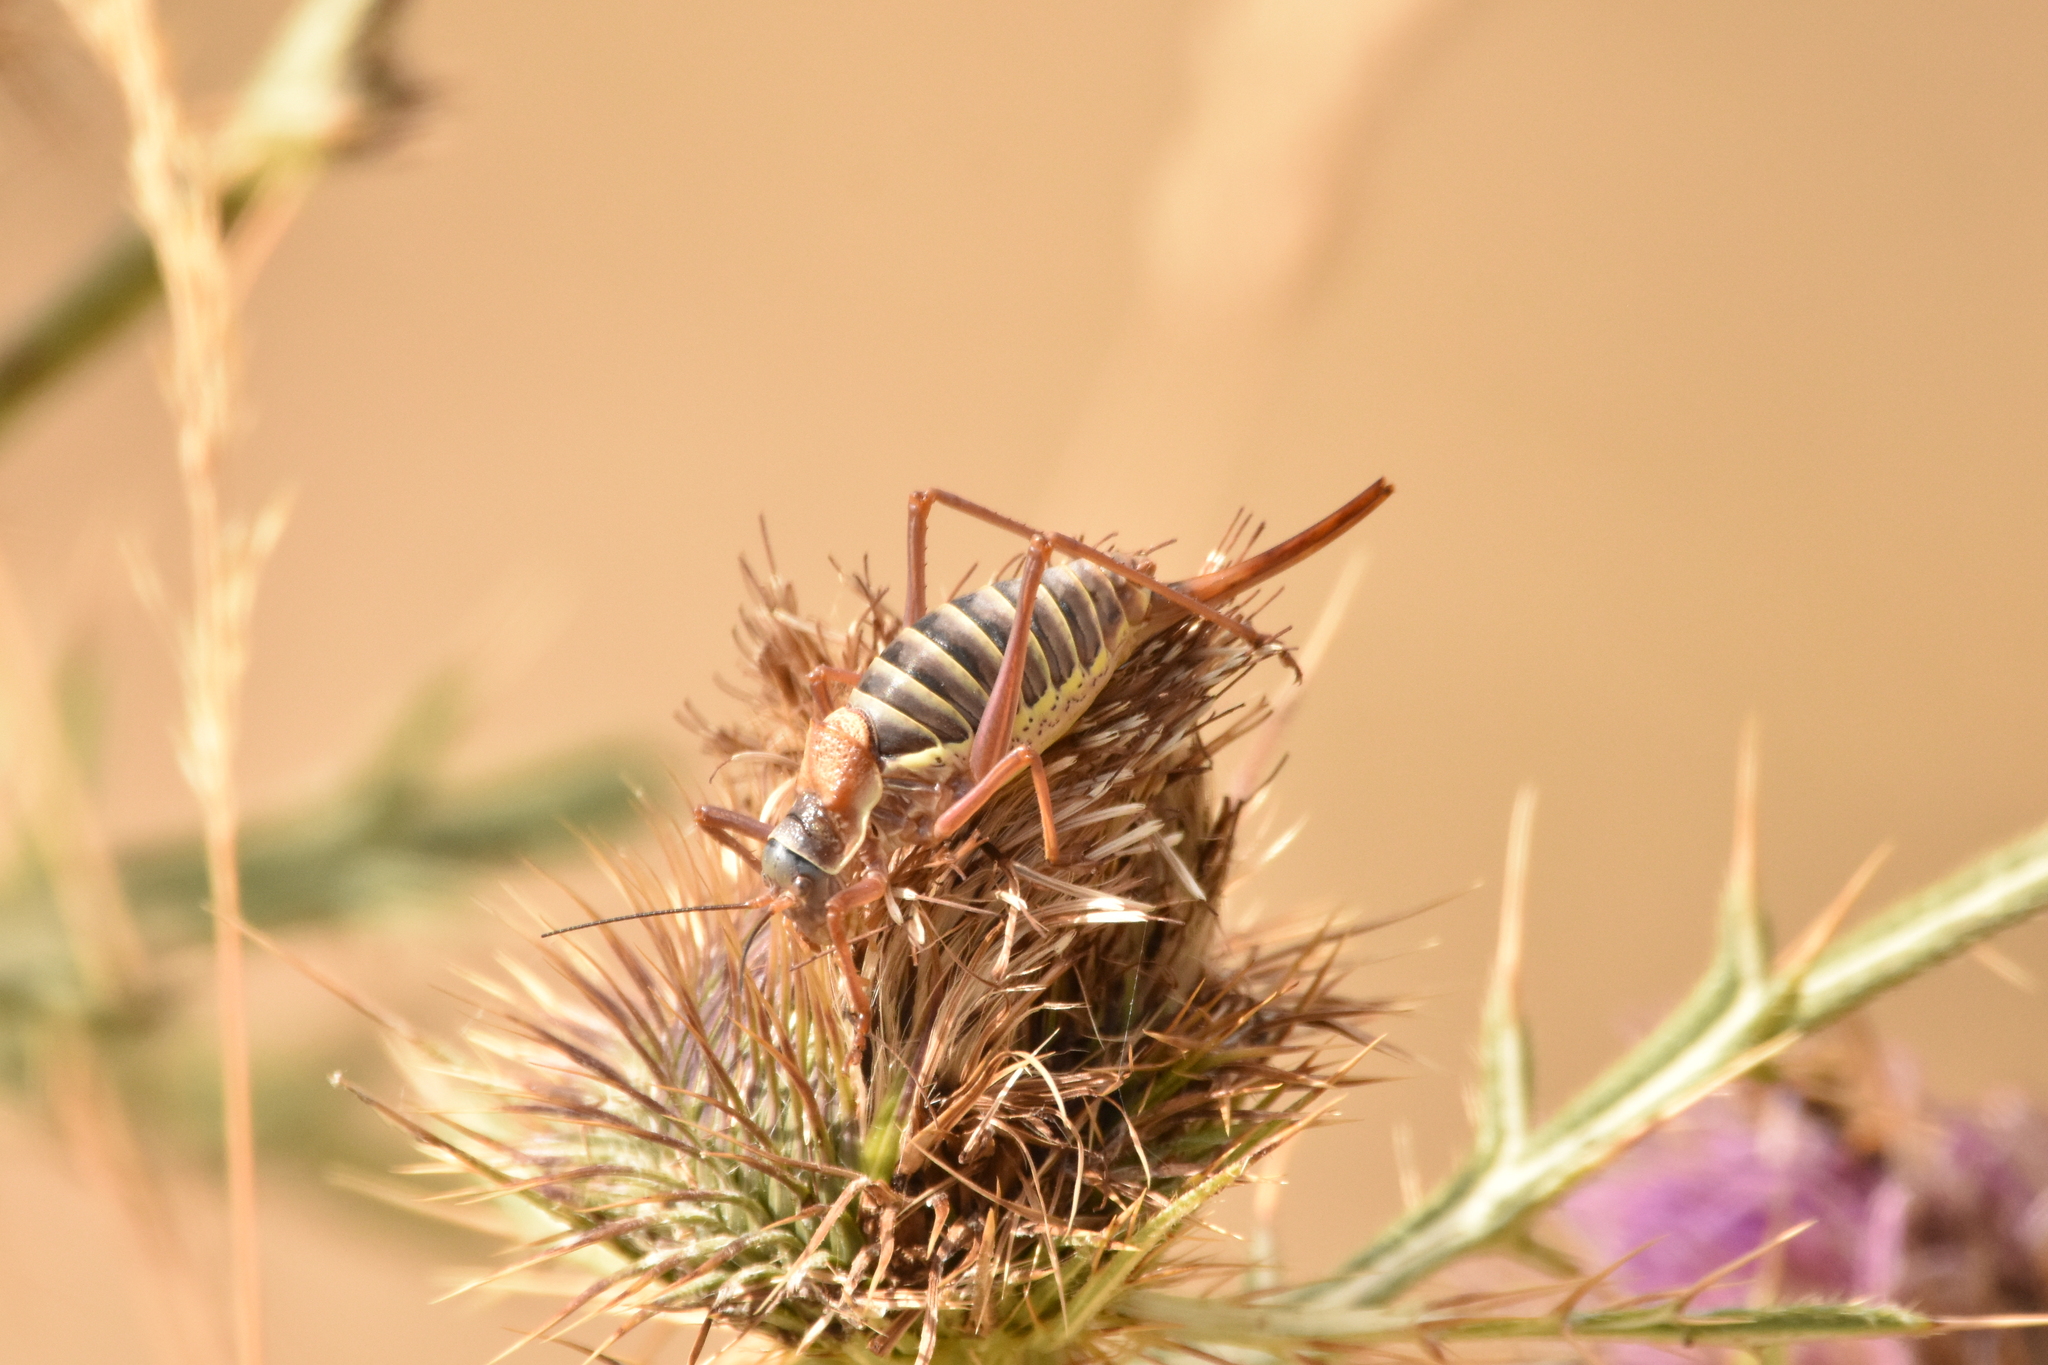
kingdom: Animalia
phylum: Arthropoda
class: Insecta
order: Orthoptera
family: Tettigoniidae
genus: Ephippiger
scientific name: Ephippiger diurnus
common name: Western saddle bush-cricket
